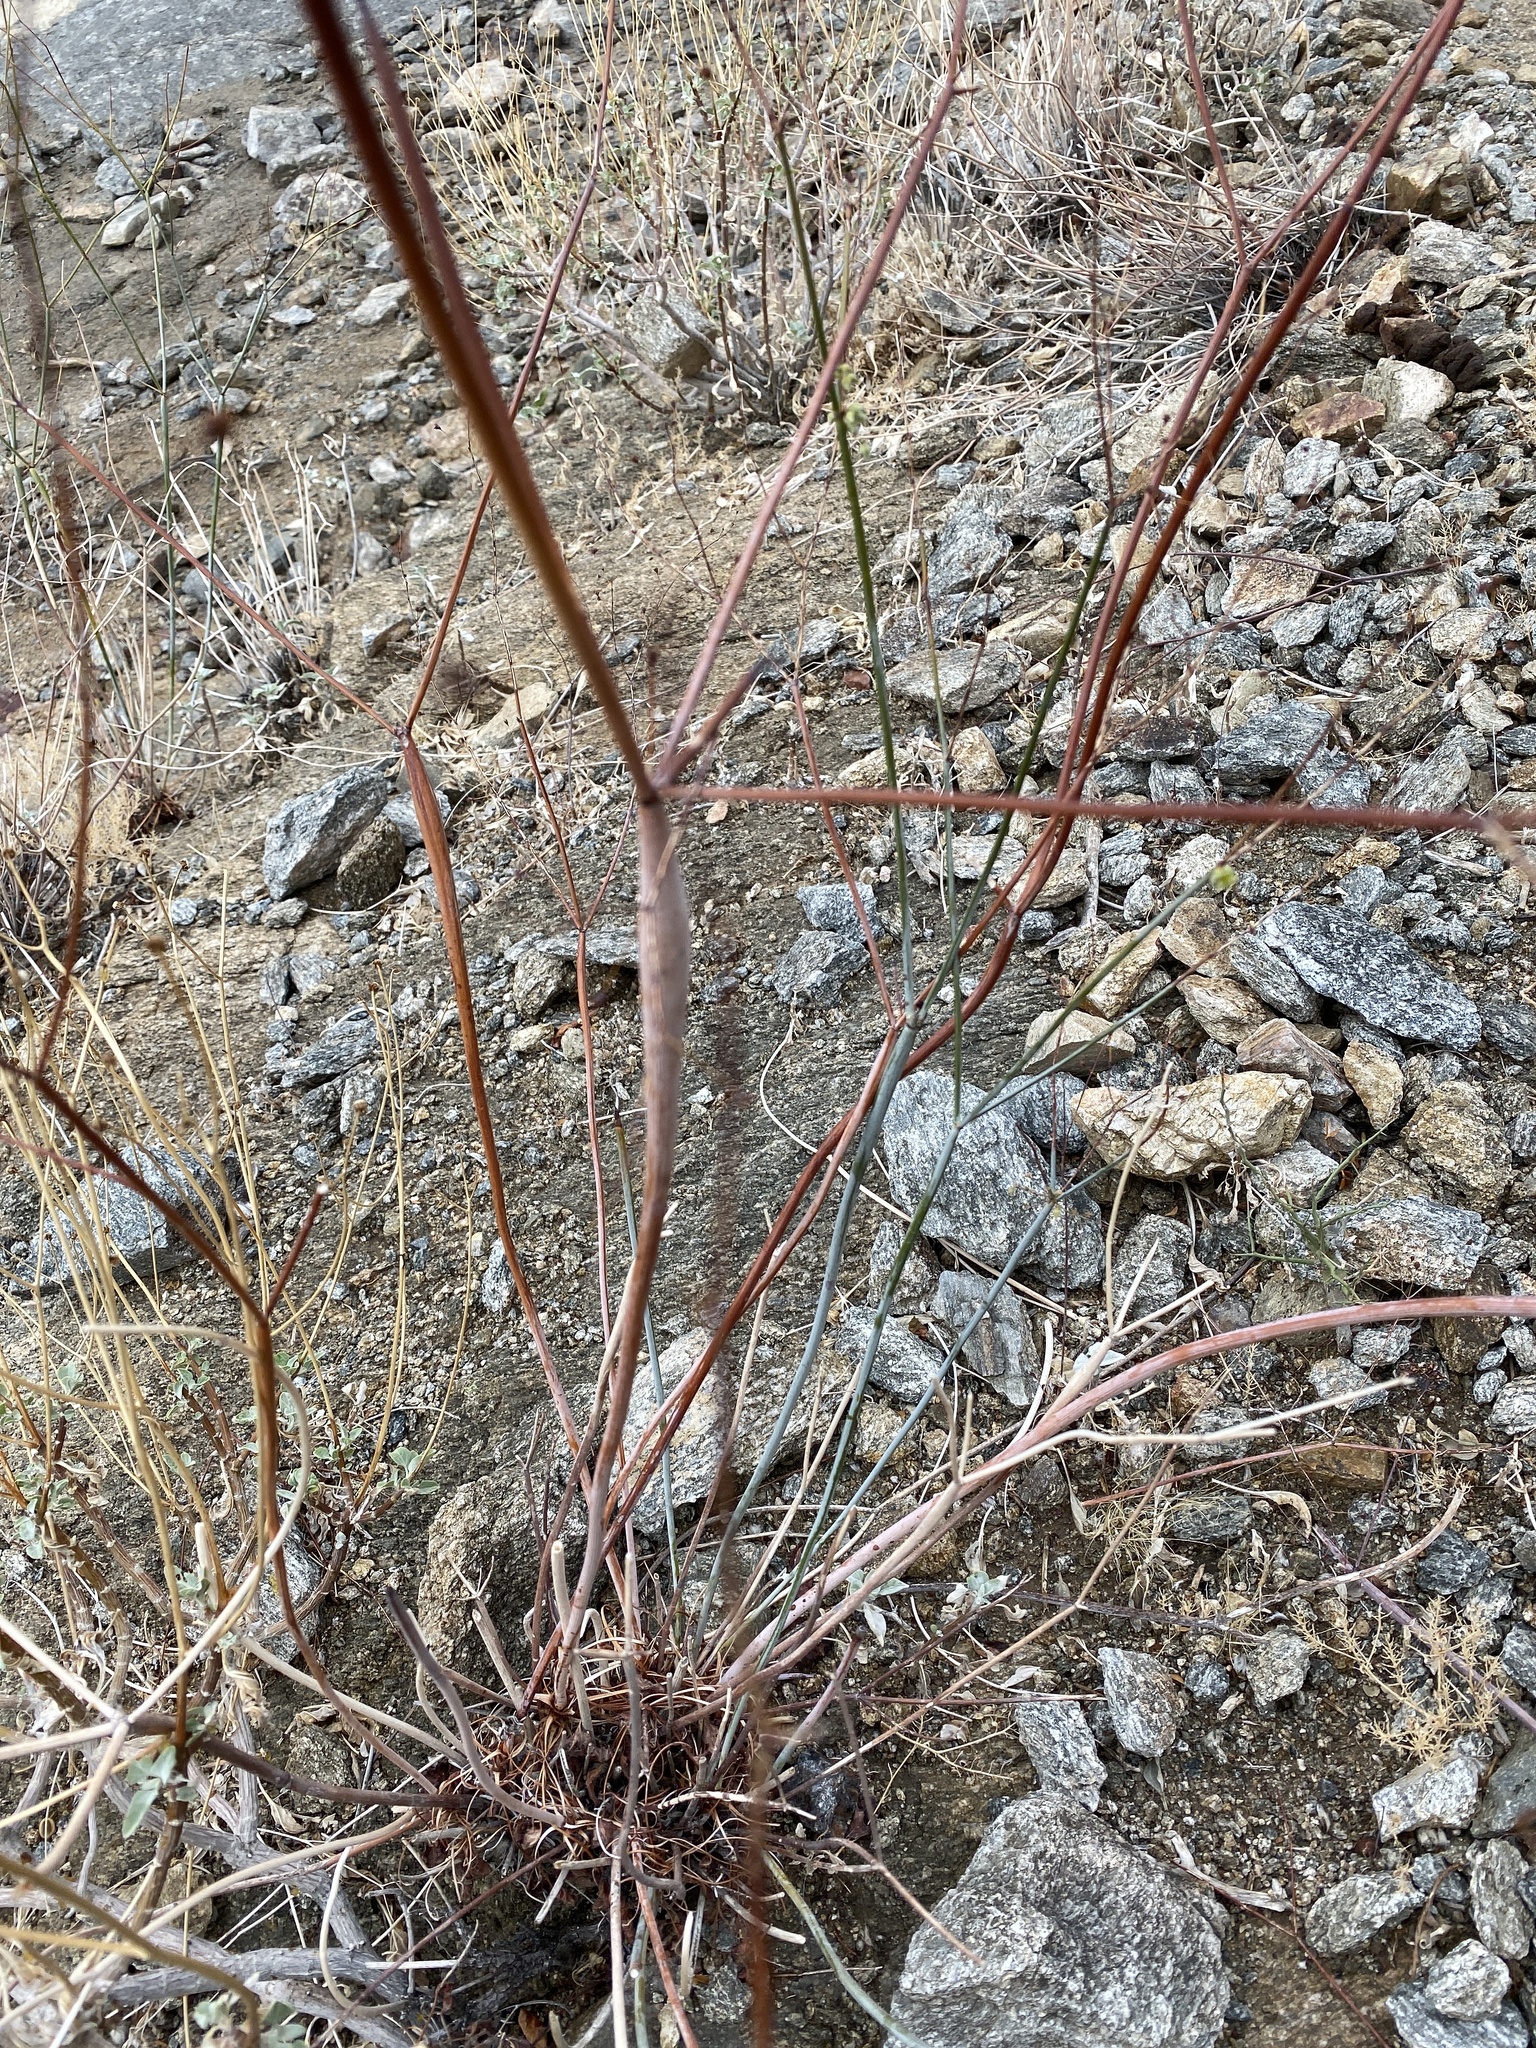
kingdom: Plantae
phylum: Tracheophyta
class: Magnoliopsida
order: Caryophyllales
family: Polygonaceae
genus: Eriogonum
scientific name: Eriogonum inflatum
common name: Desert trumpet
